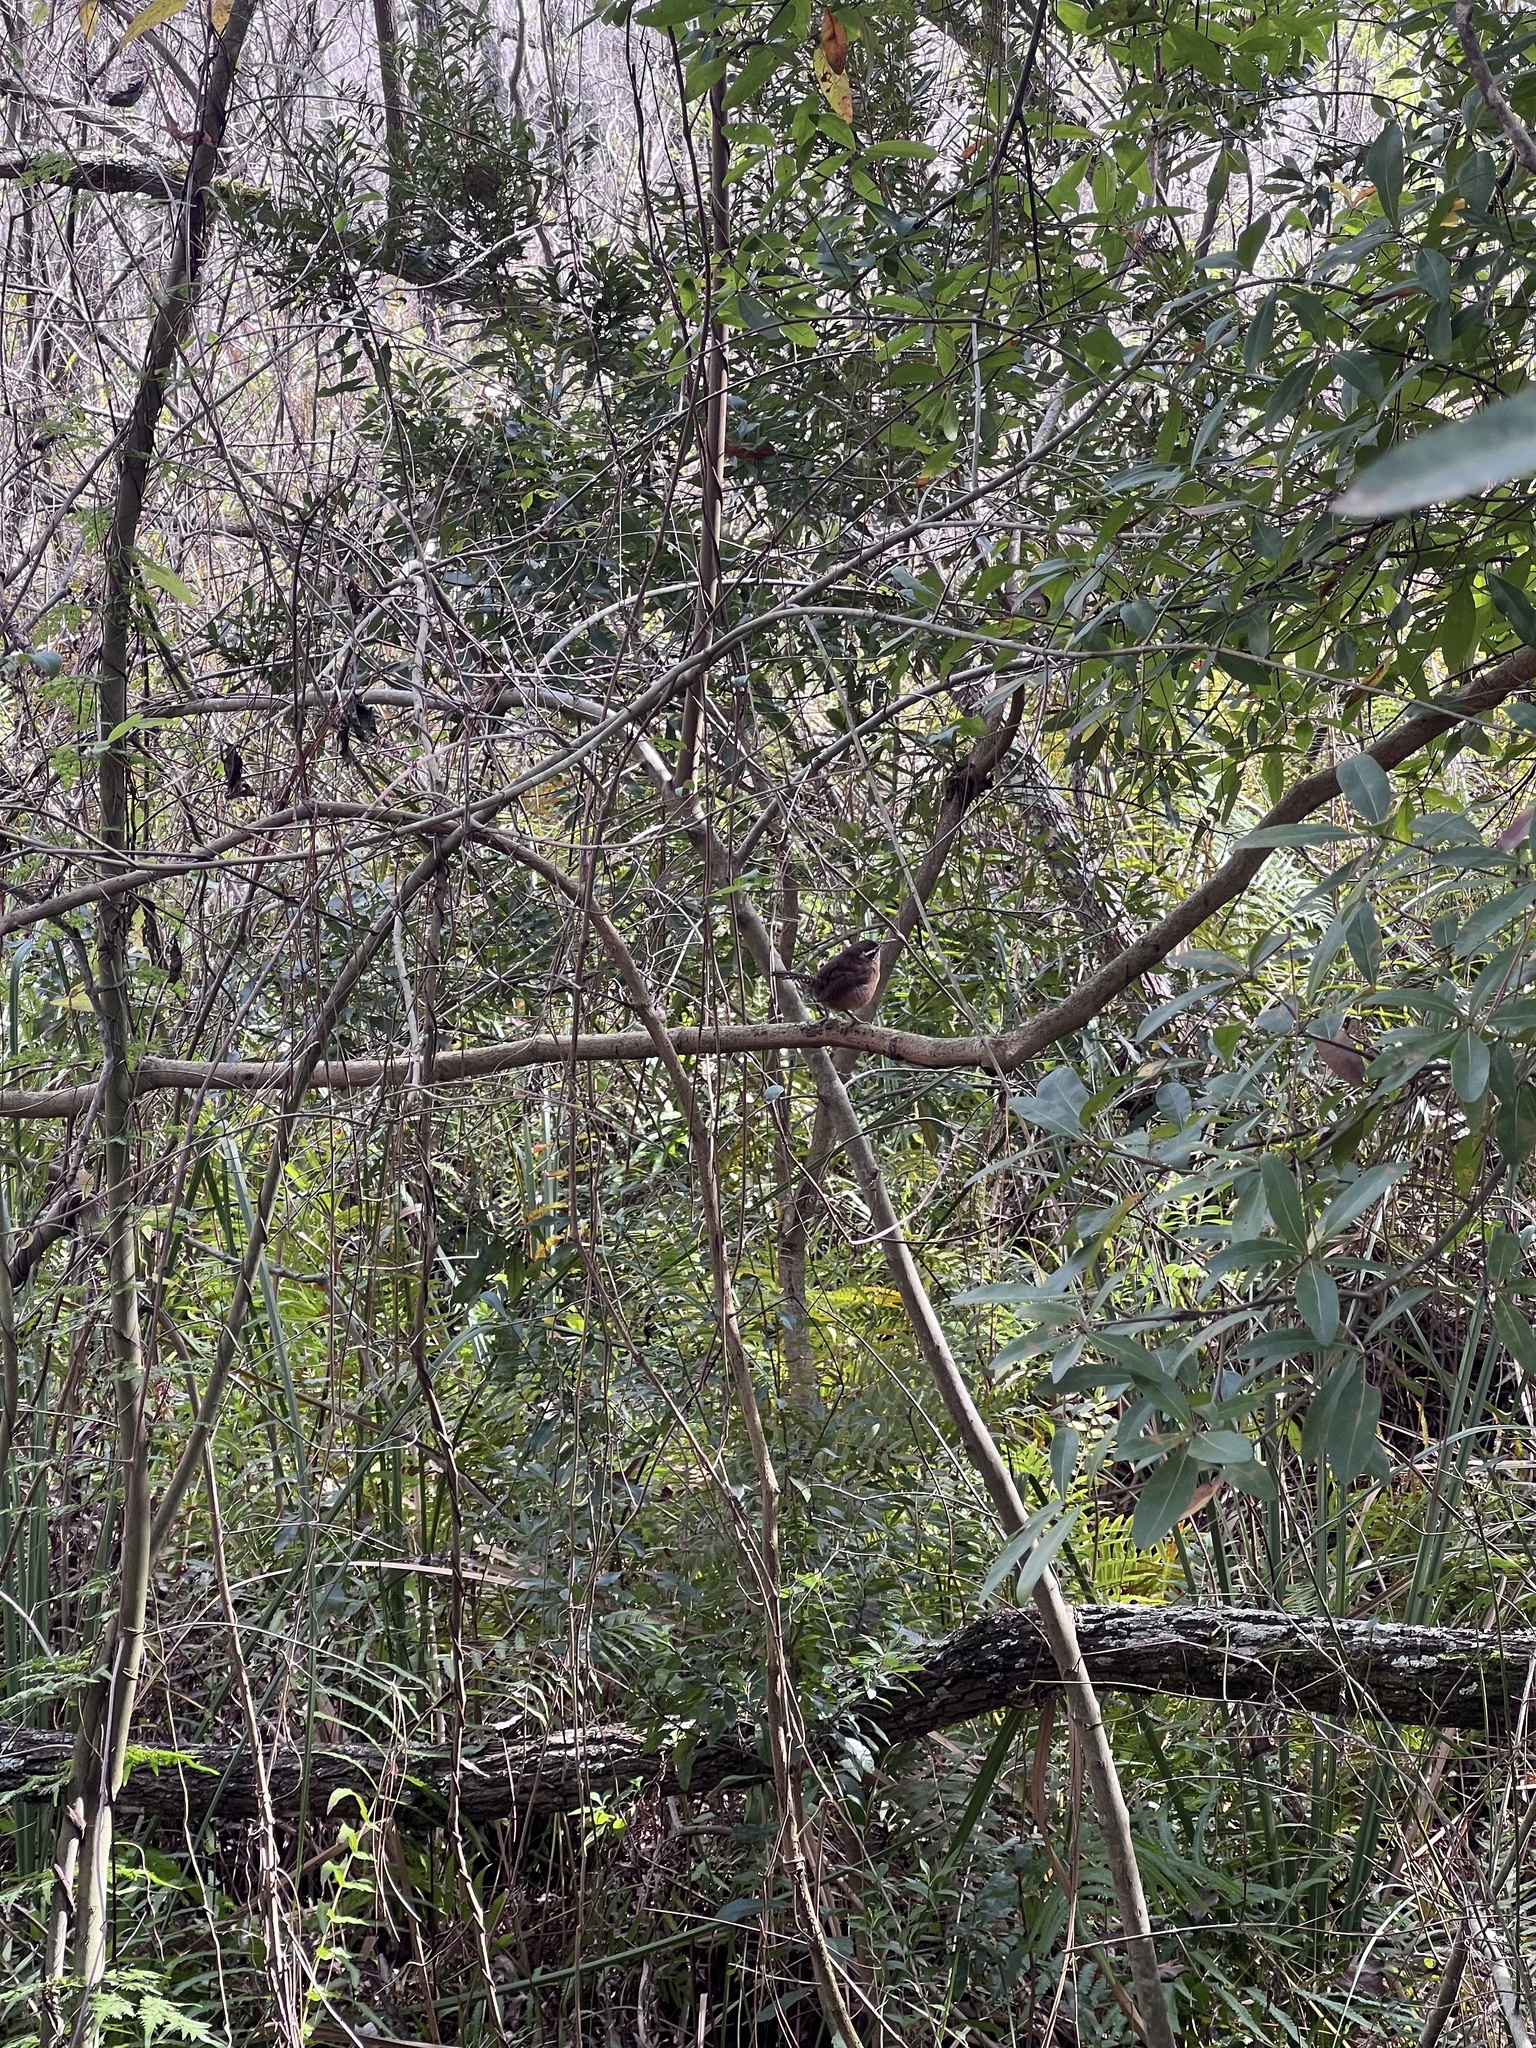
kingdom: Animalia
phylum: Chordata
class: Aves
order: Passeriformes
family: Troglodytidae
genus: Thryothorus
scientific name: Thryothorus ludovicianus
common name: Carolina wren
